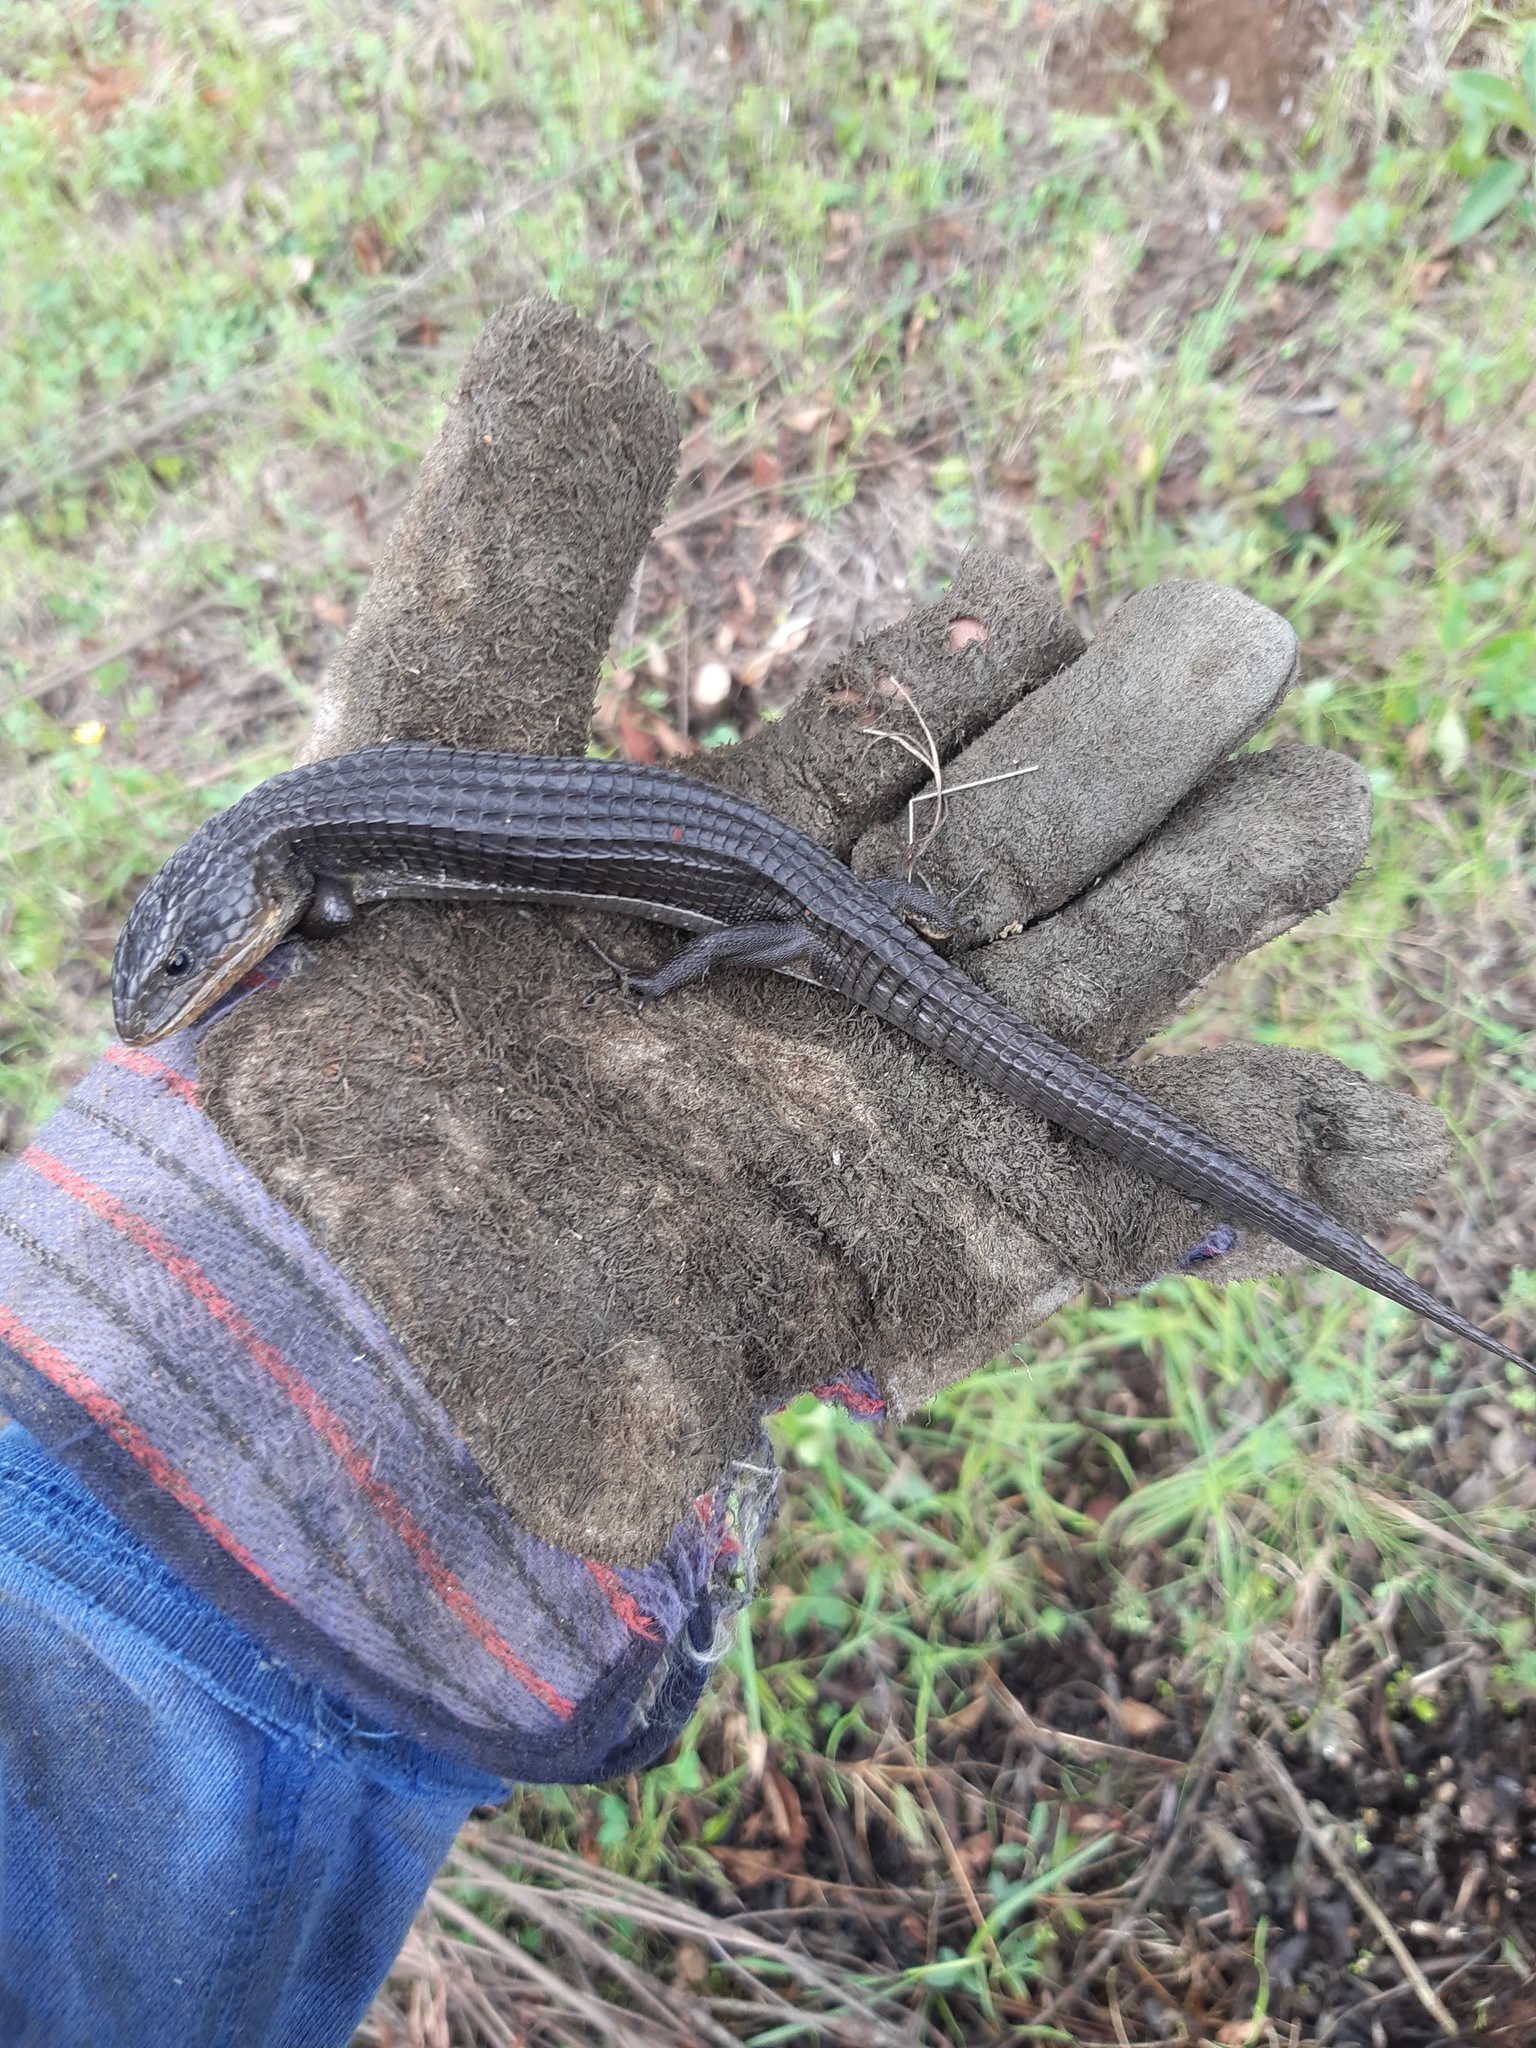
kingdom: Animalia
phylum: Chordata
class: Squamata
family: Anguidae
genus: Barisia
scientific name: Barisia imbricata
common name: Imbricate alligator lizard
